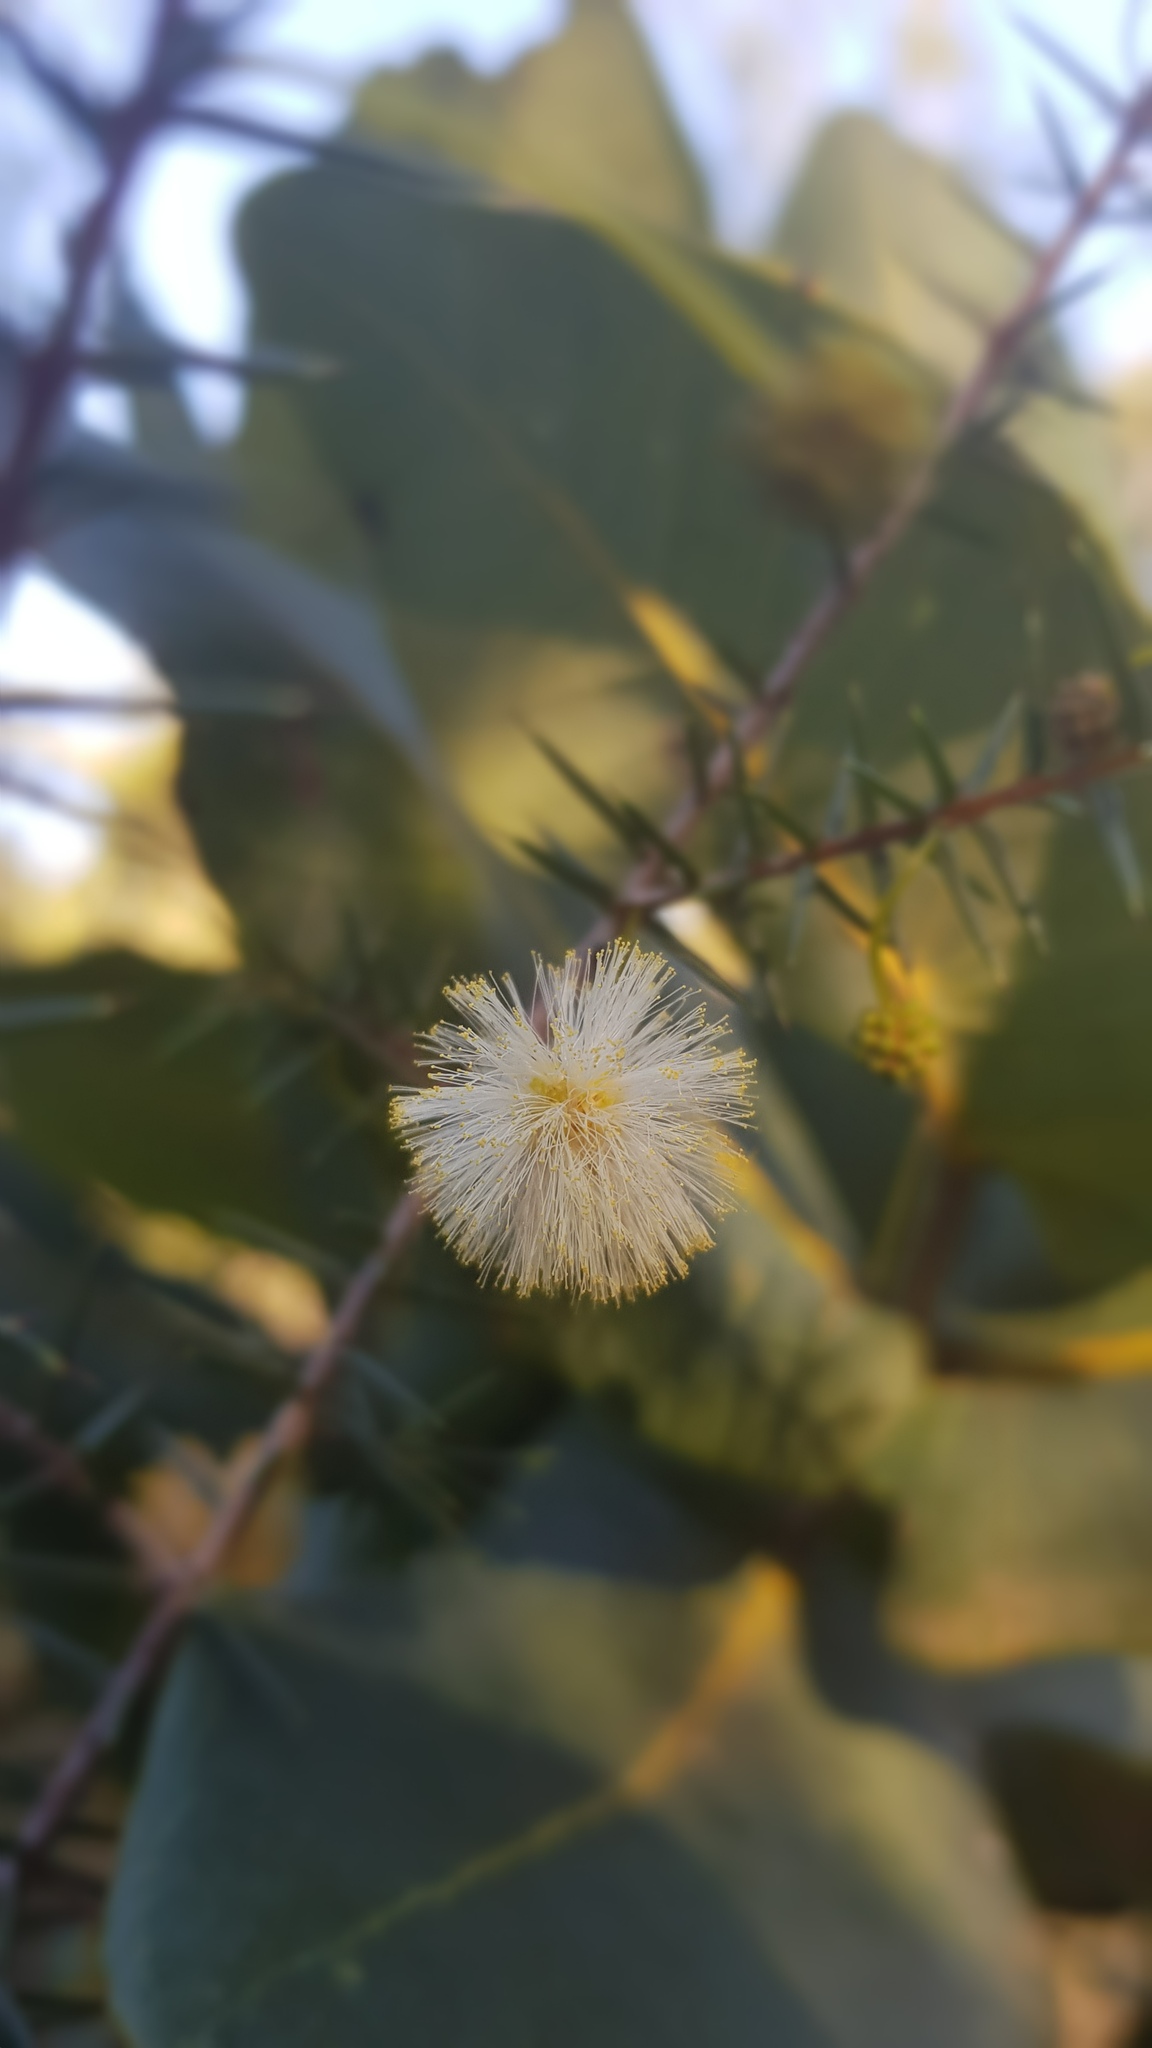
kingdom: Plantae
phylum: Tracheophyta
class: Magnoliopsida
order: Fabales
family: Fabaceae
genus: Acacia
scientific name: Acacia ulicifolia
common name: Juniper wattle
